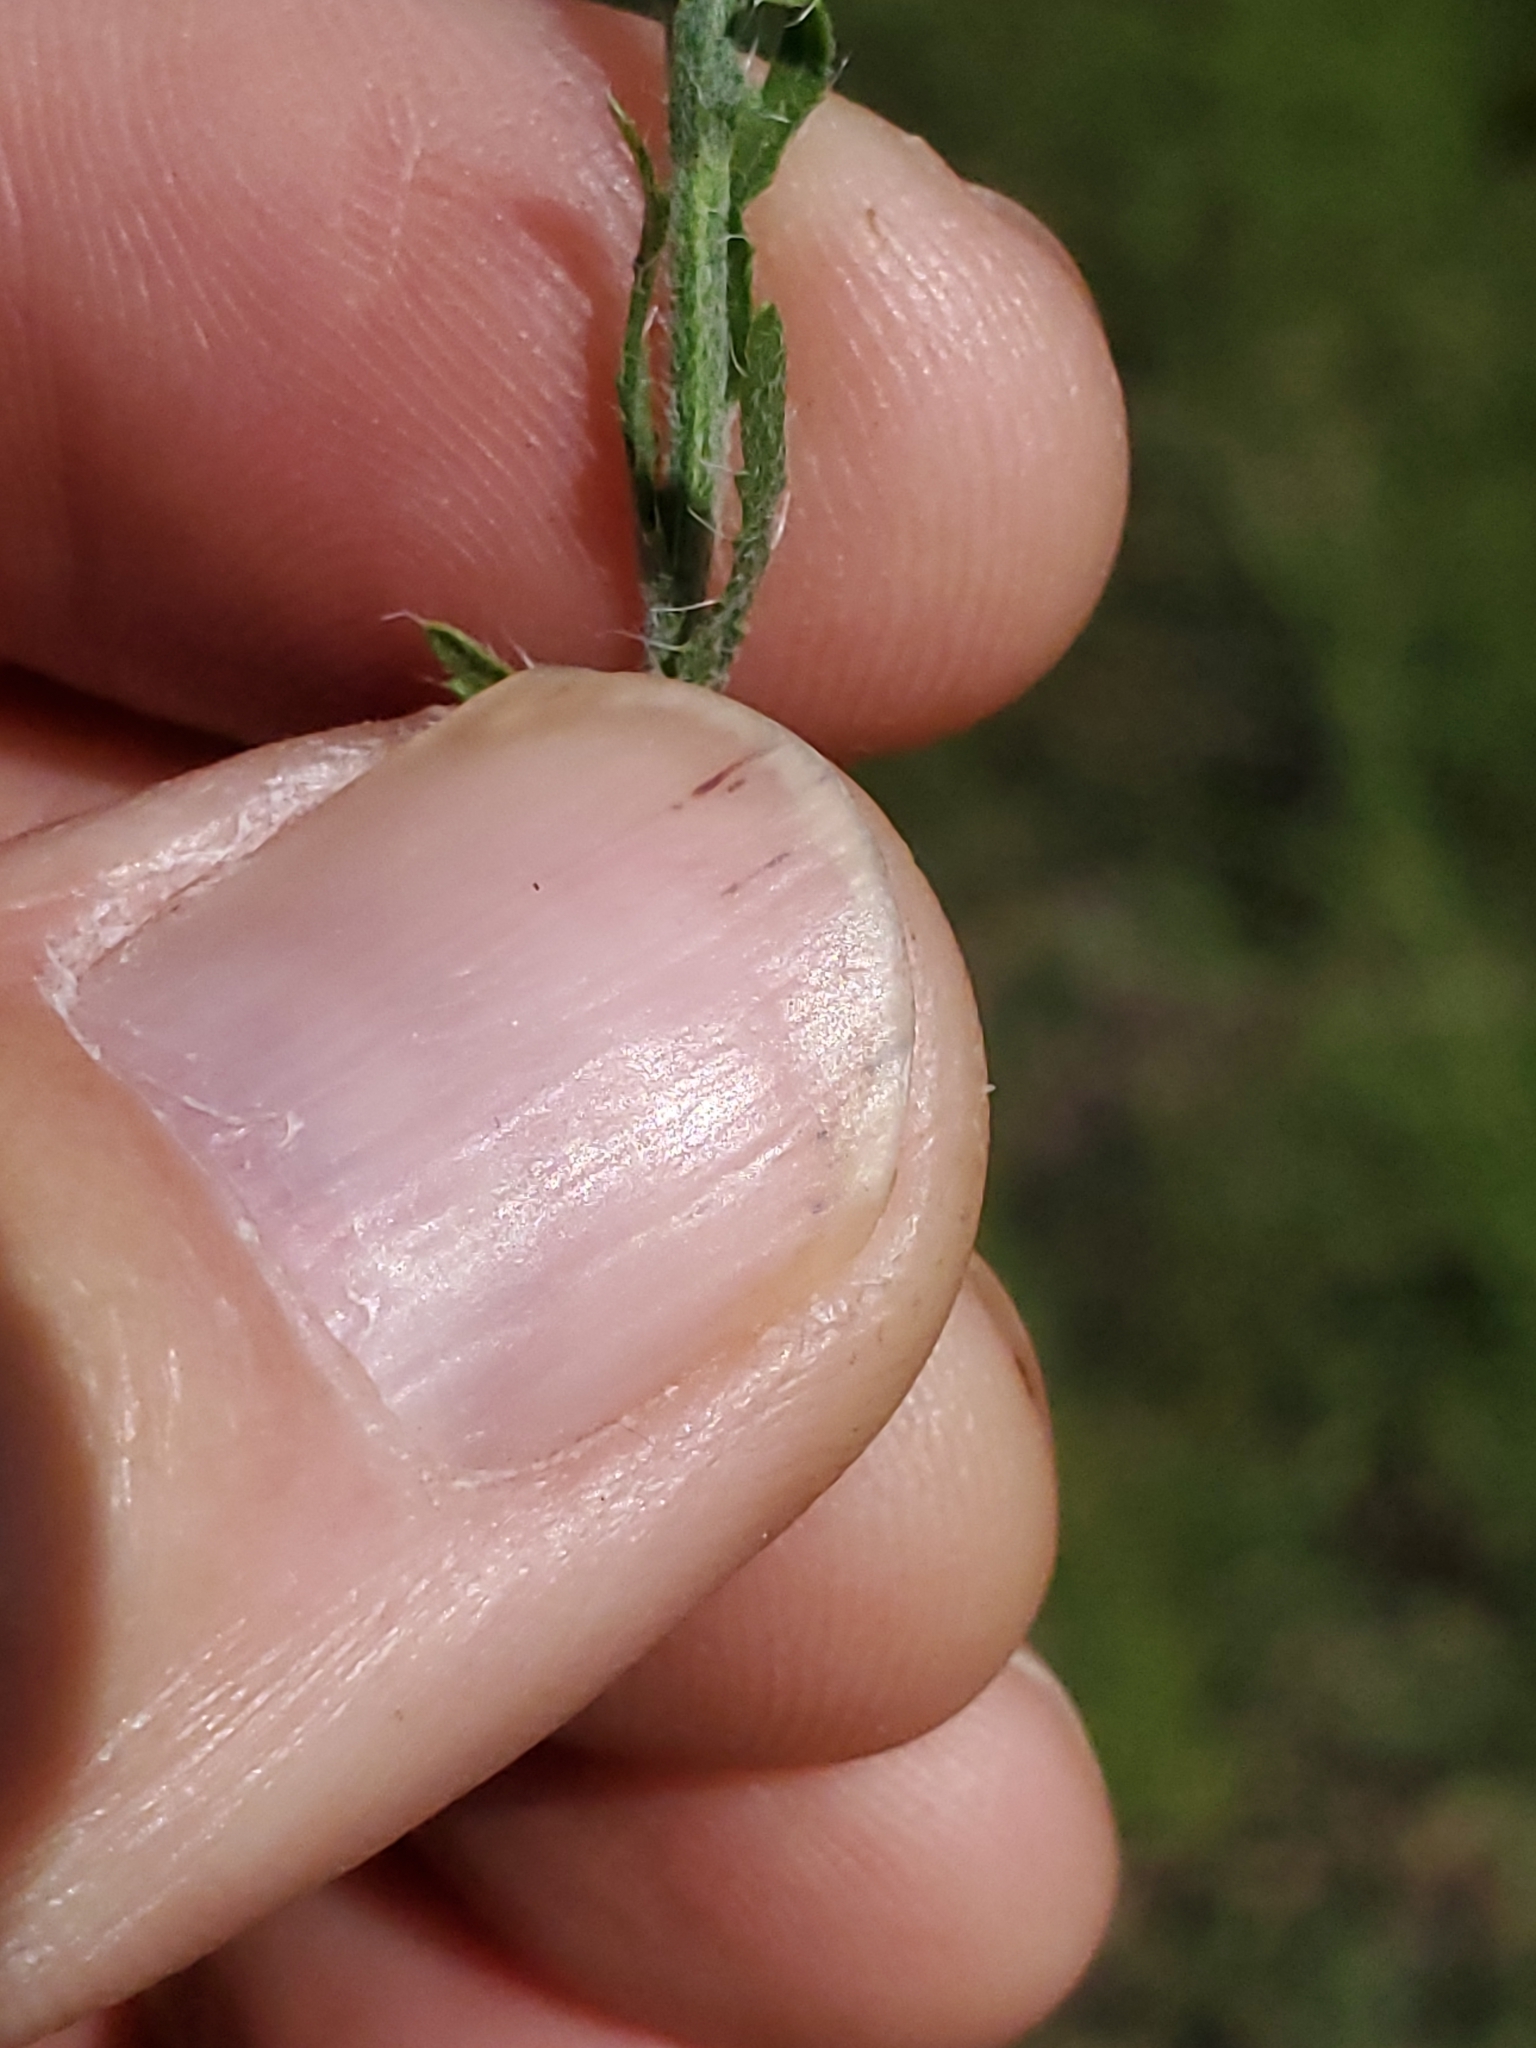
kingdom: Plantae
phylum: Tracheophyta
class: Magnoliopsida
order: Asterales
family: Asteraceae
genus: Xanthisma
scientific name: Xanthisma gracile
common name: Slender goldenweed
